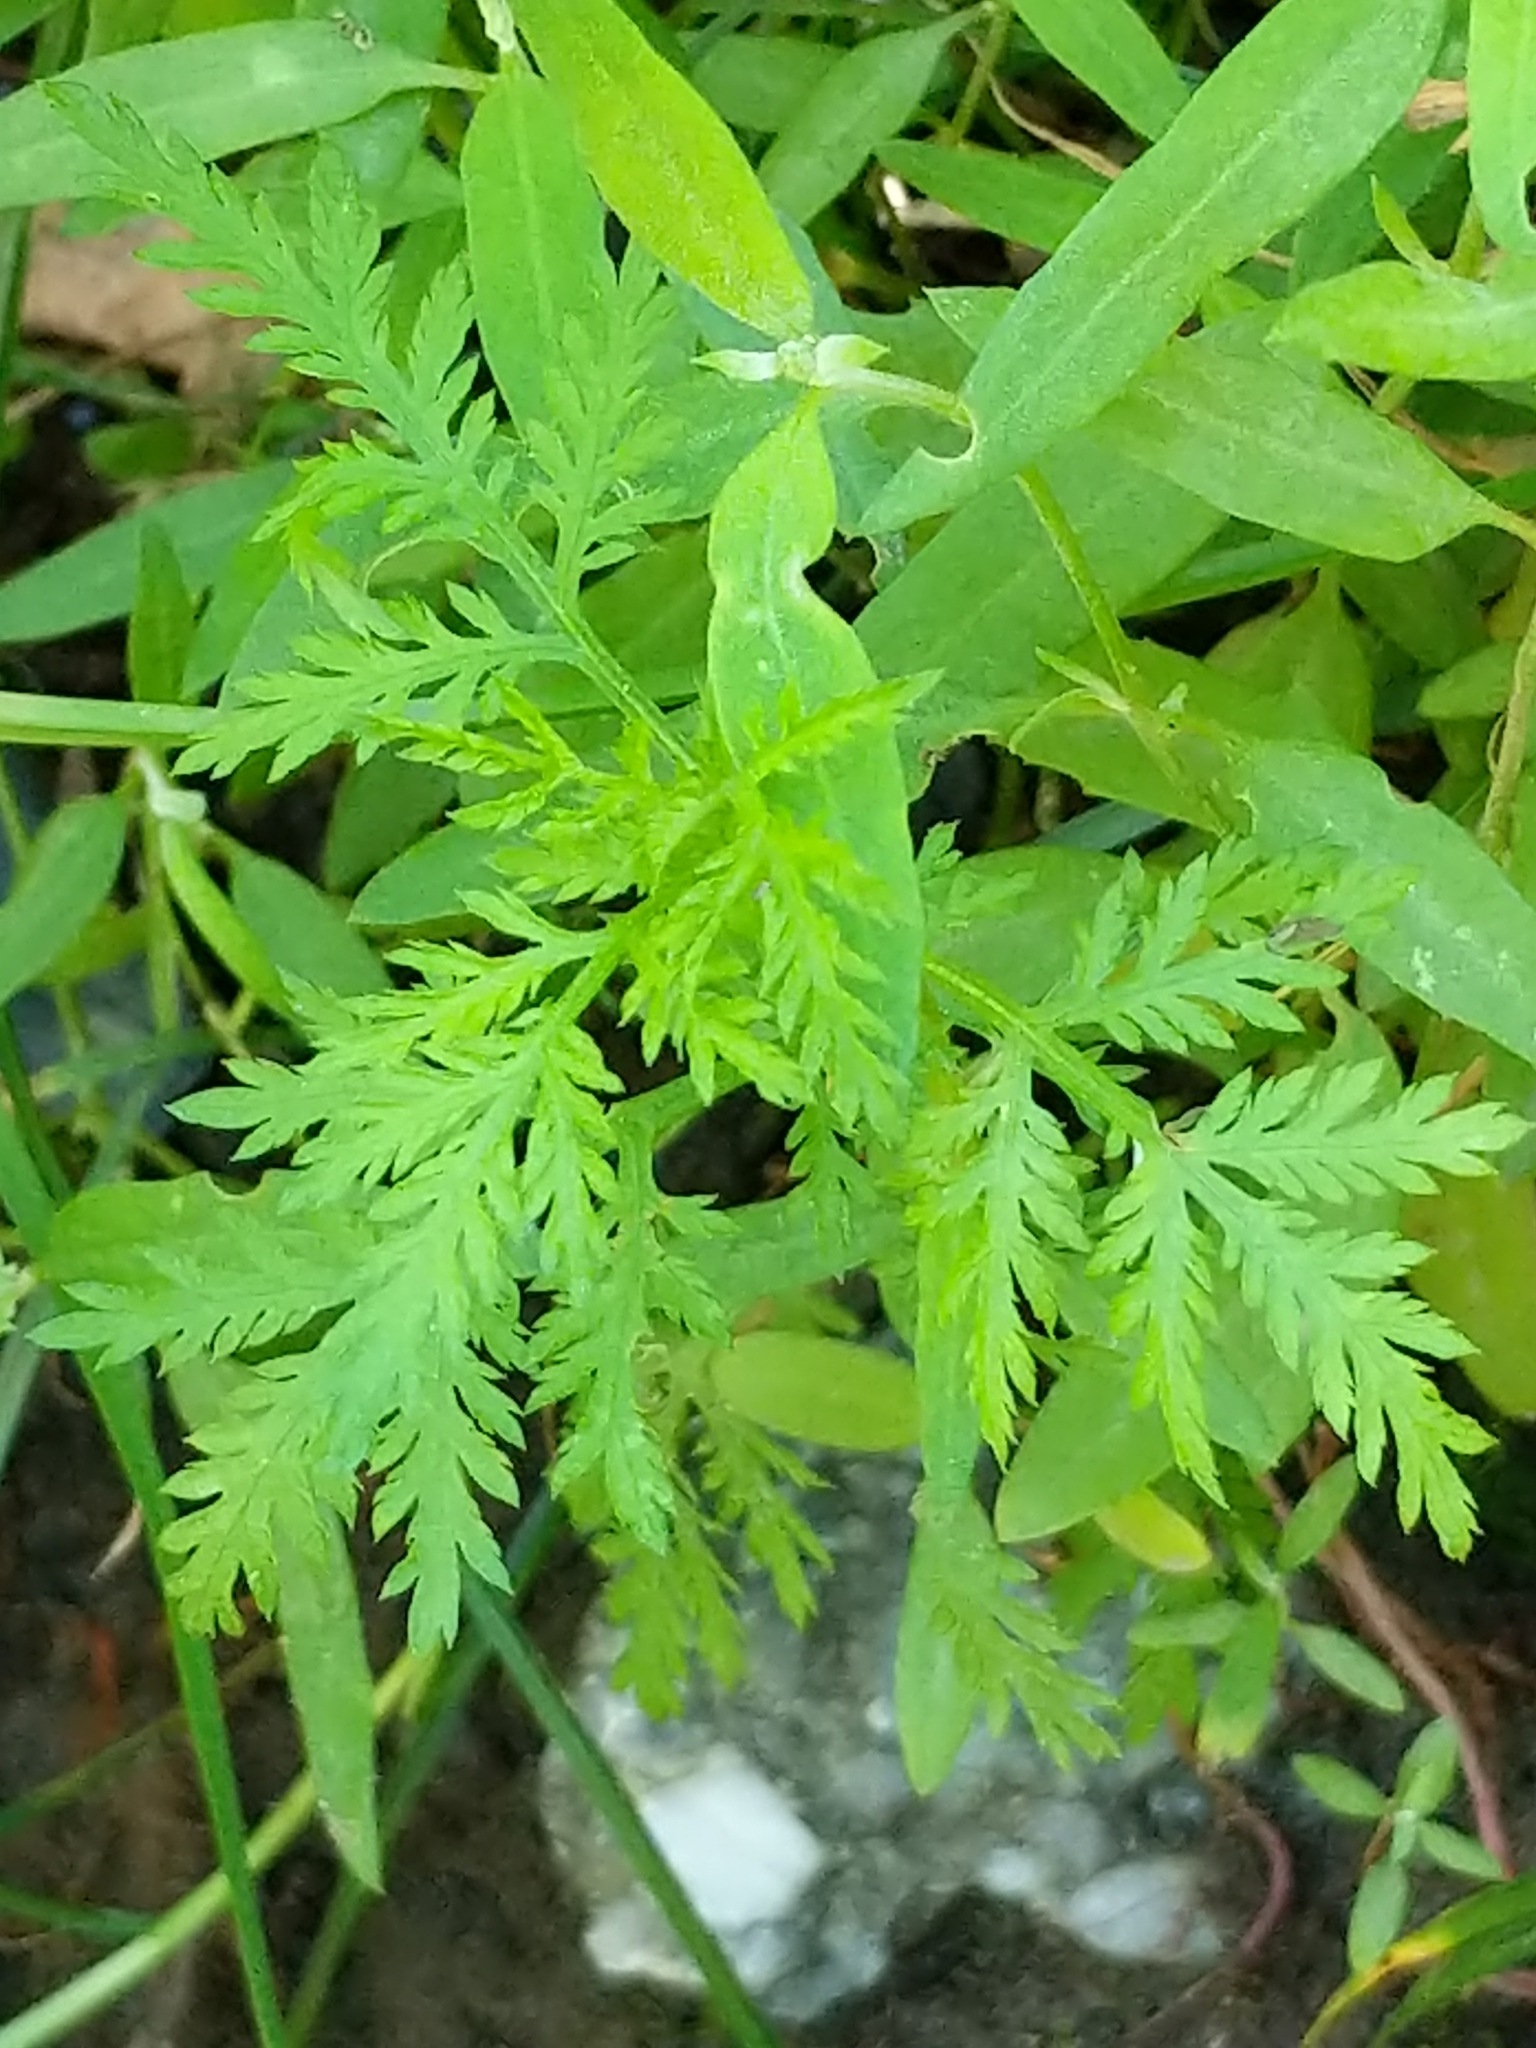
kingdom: Plantae
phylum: Tracheophyta
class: Magnoliopsida
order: Asterales
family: Asteraceae
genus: Artemisia
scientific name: Artemisia annua
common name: Sweet sagewort
